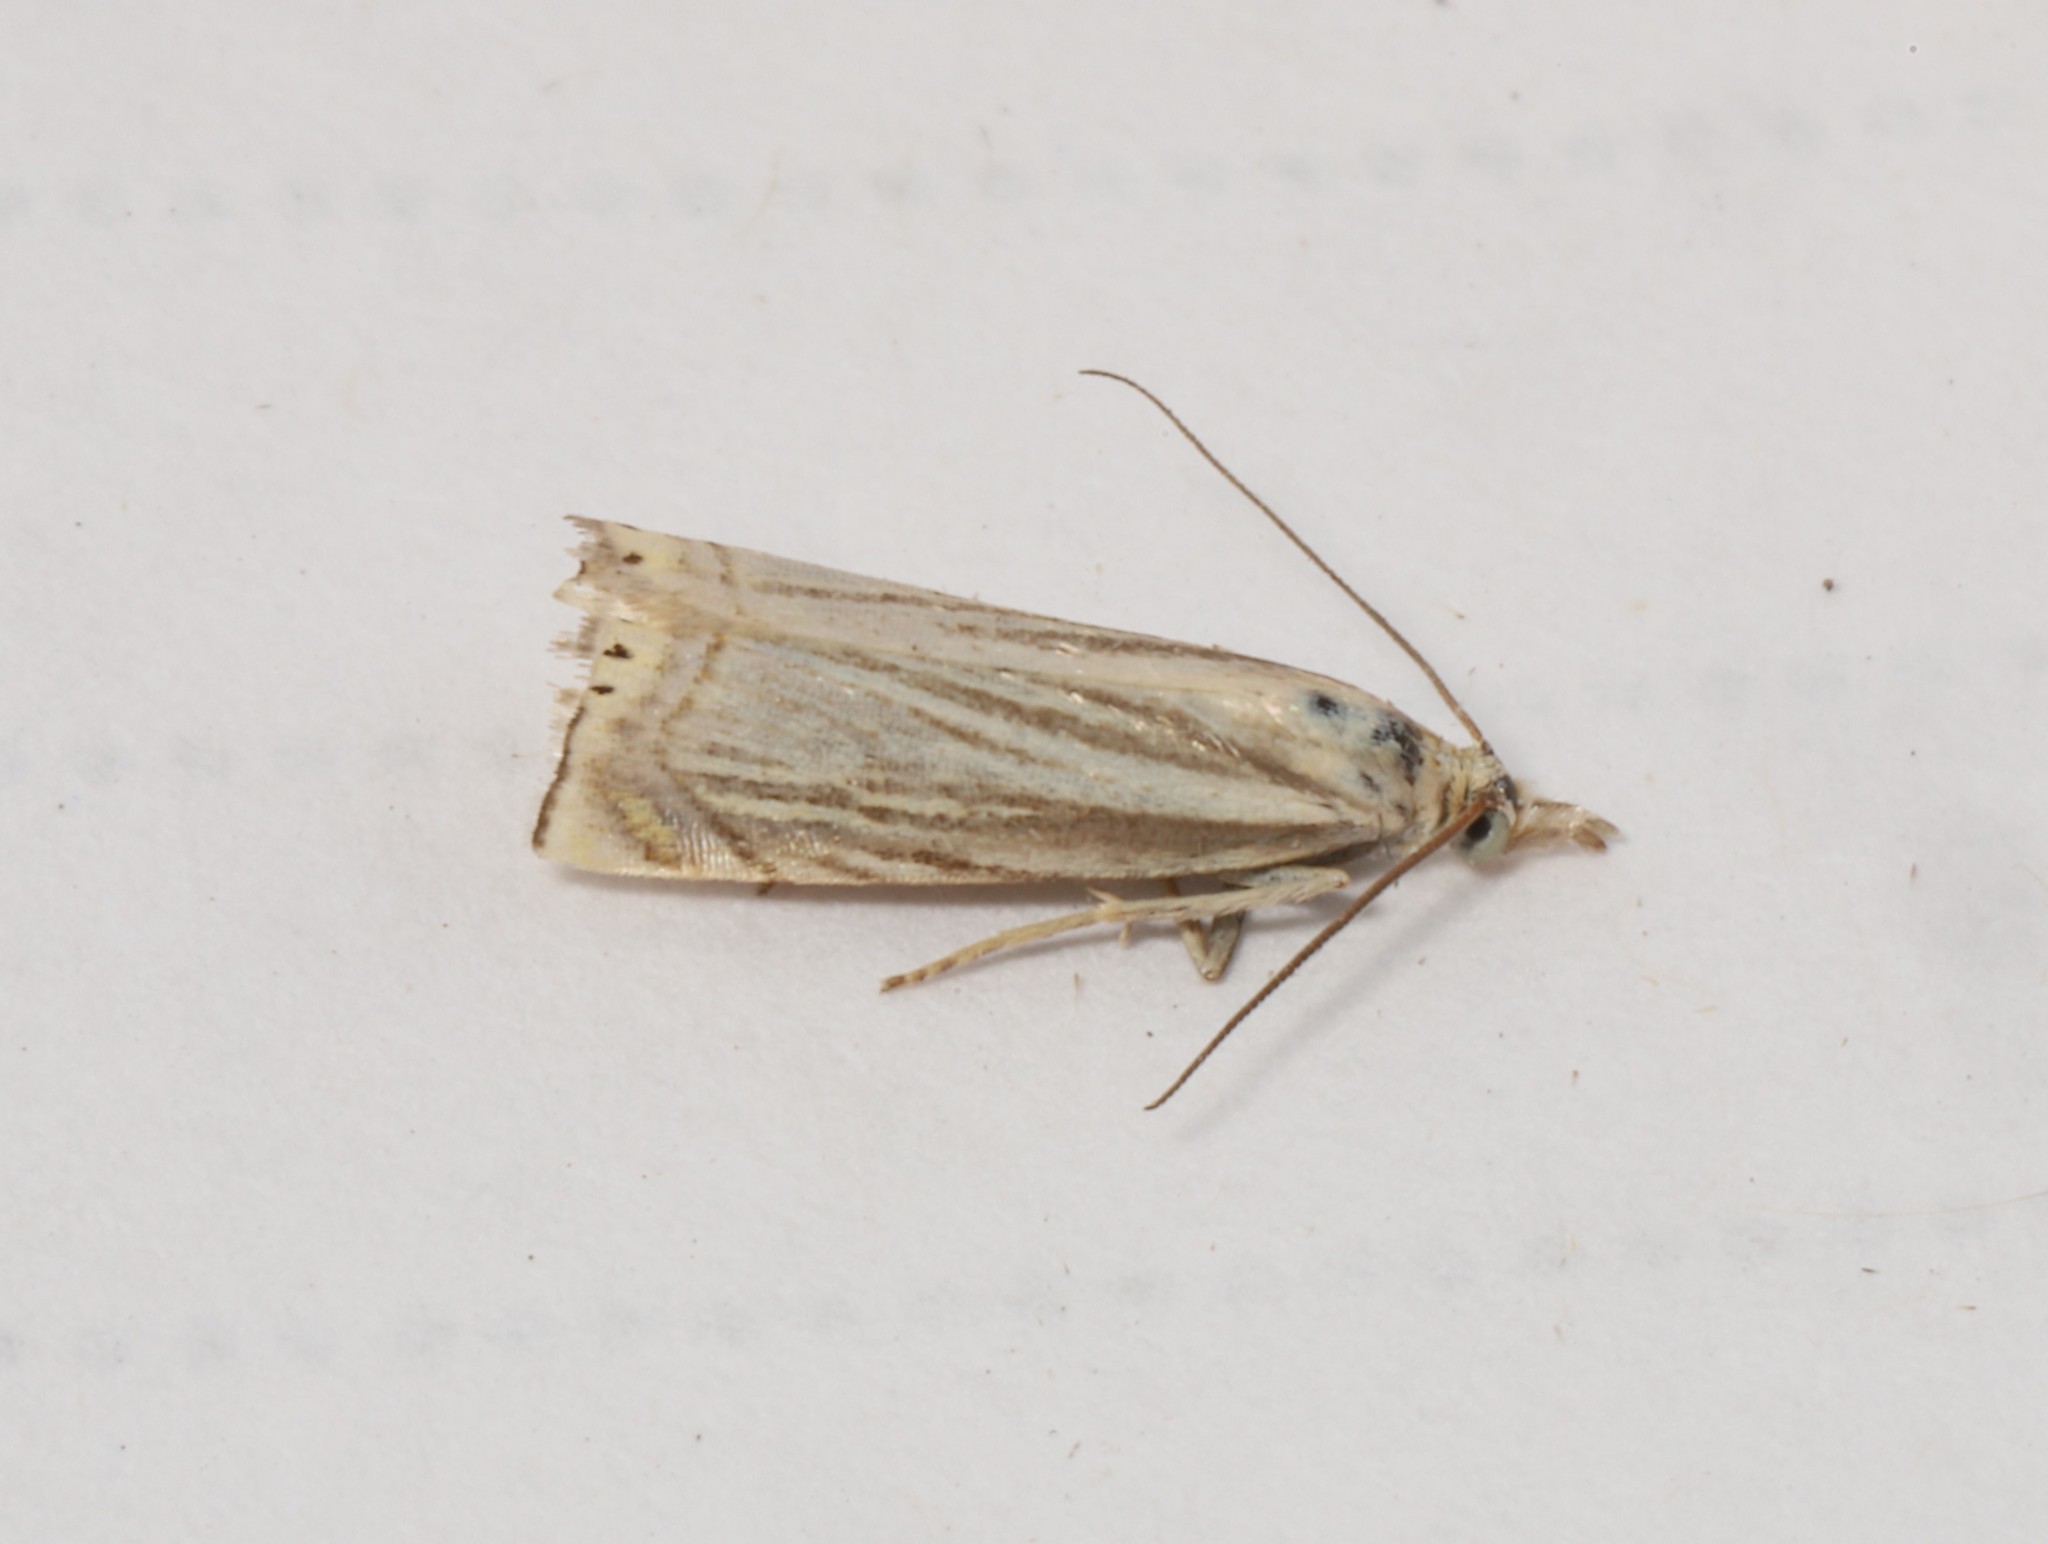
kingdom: Animalia
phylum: Arthropoda
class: Insecta
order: Lepidoptera
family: Crambidae
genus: Chrysoteuchia
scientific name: Chrysoteuchia topiarius
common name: Topiary grass-veneer
